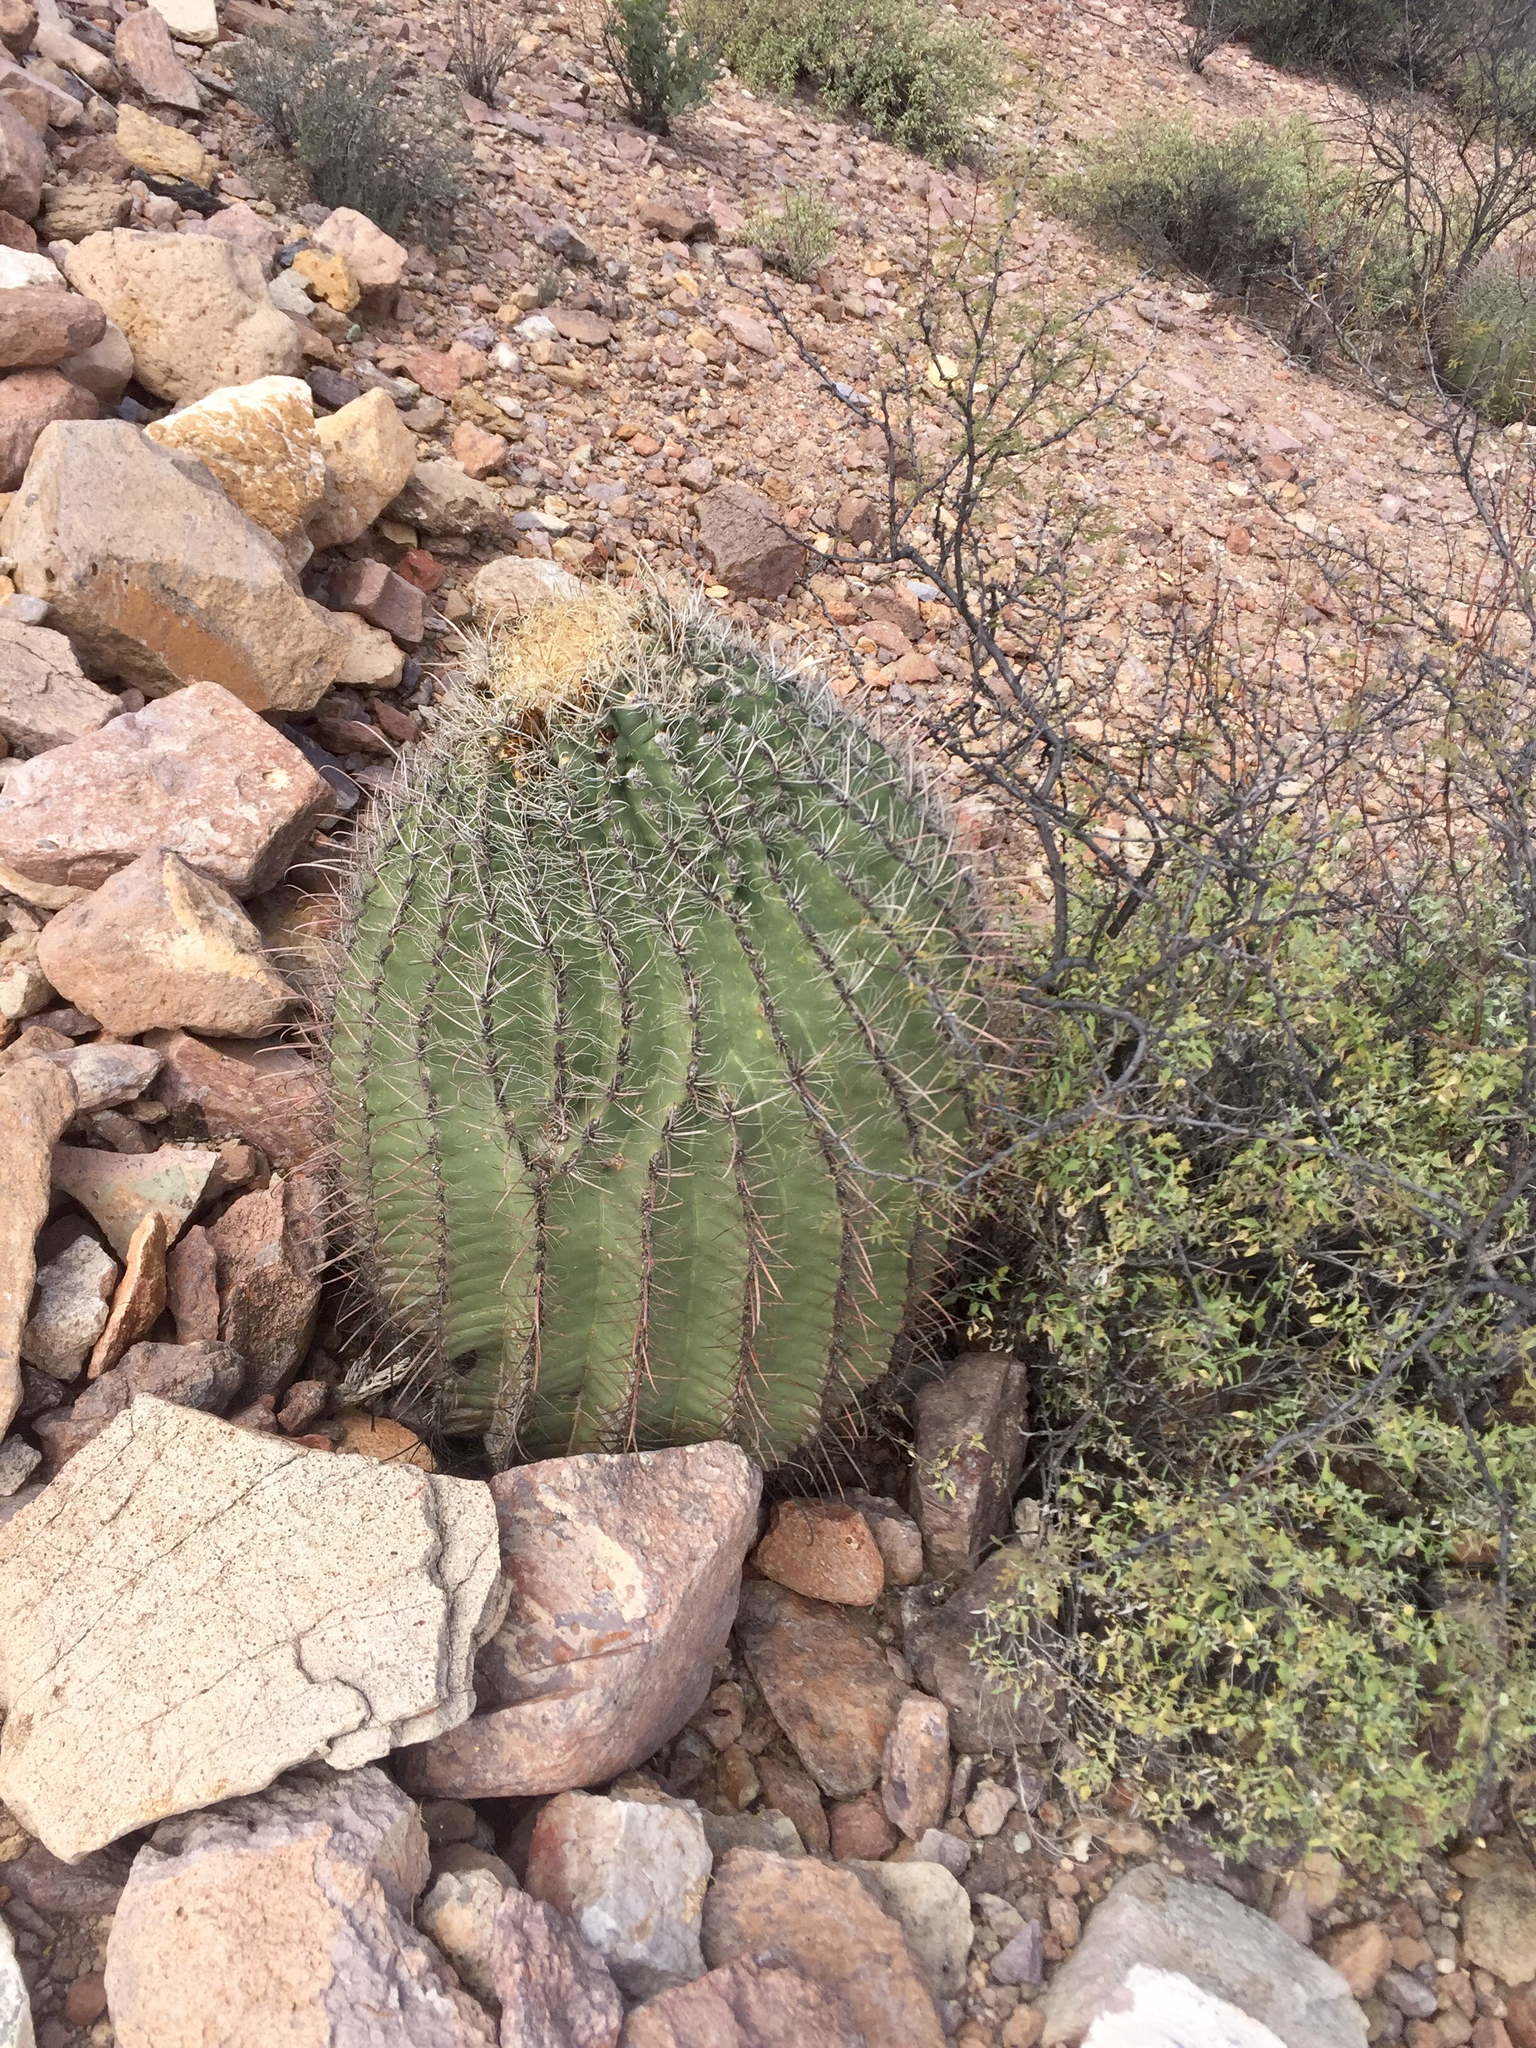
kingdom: Plantae
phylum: Tracheophyta
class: Magnoliopsida
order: Caryophyllales
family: Cactaceae
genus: Ferocactus
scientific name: Ferocactus wislizeni
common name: Candy barrel cactus
